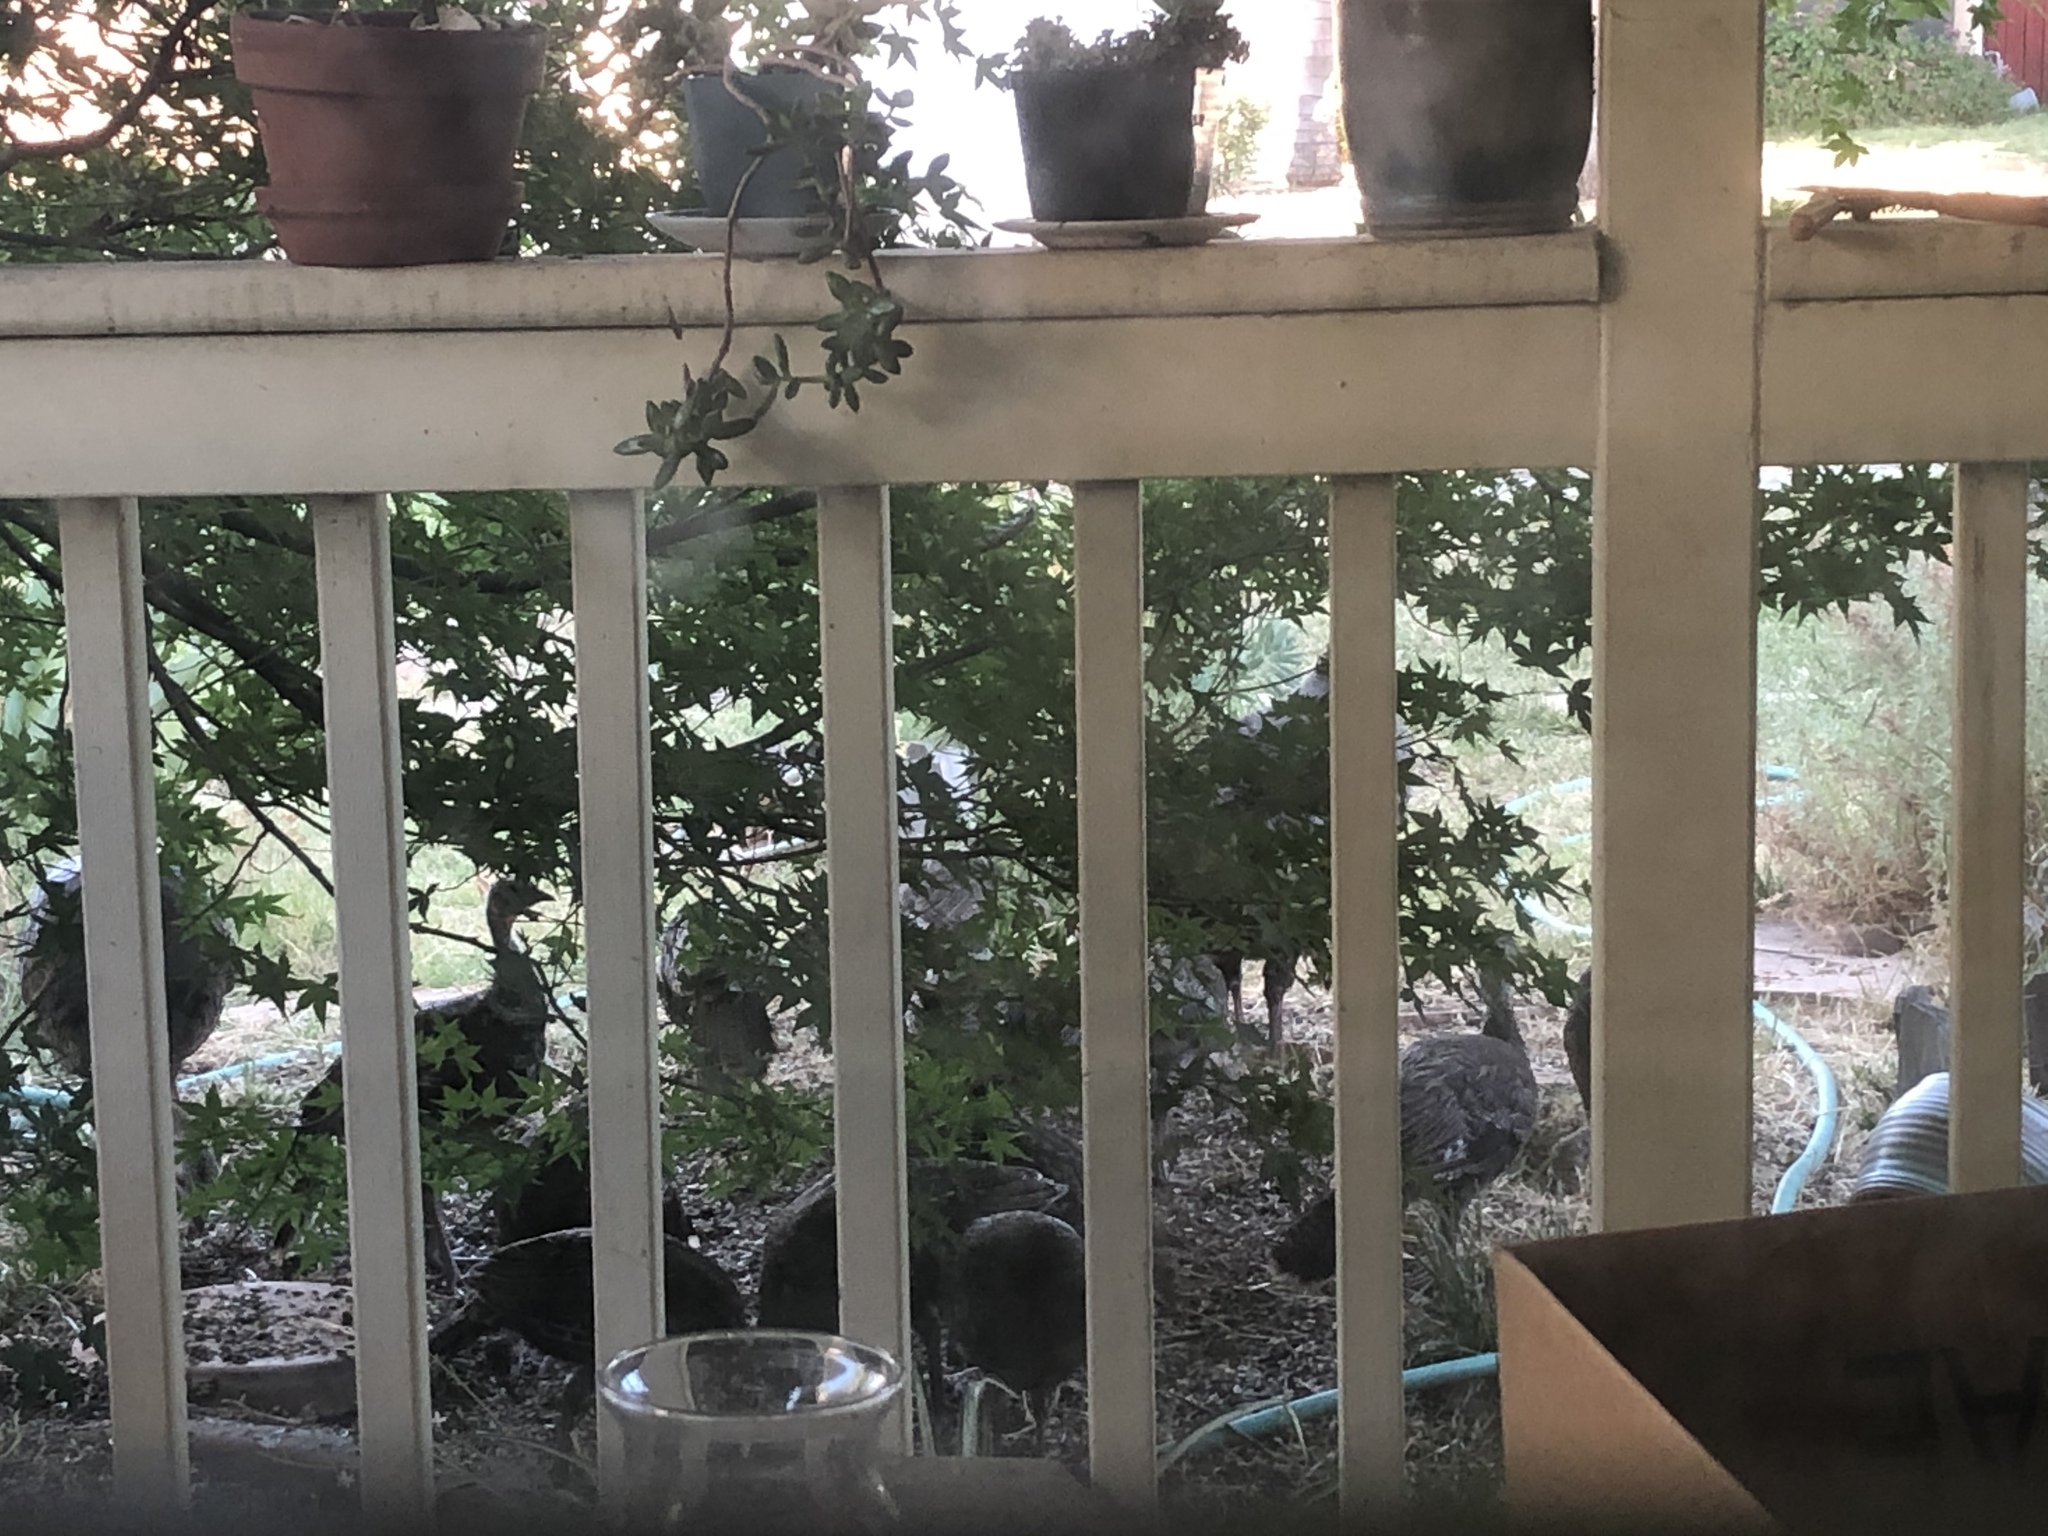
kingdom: Animalia
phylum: Chordata
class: Aves
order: Galliformes
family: Phasianidae
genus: Meleagris
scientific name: Meleagris gallopavo
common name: Wild turkey
